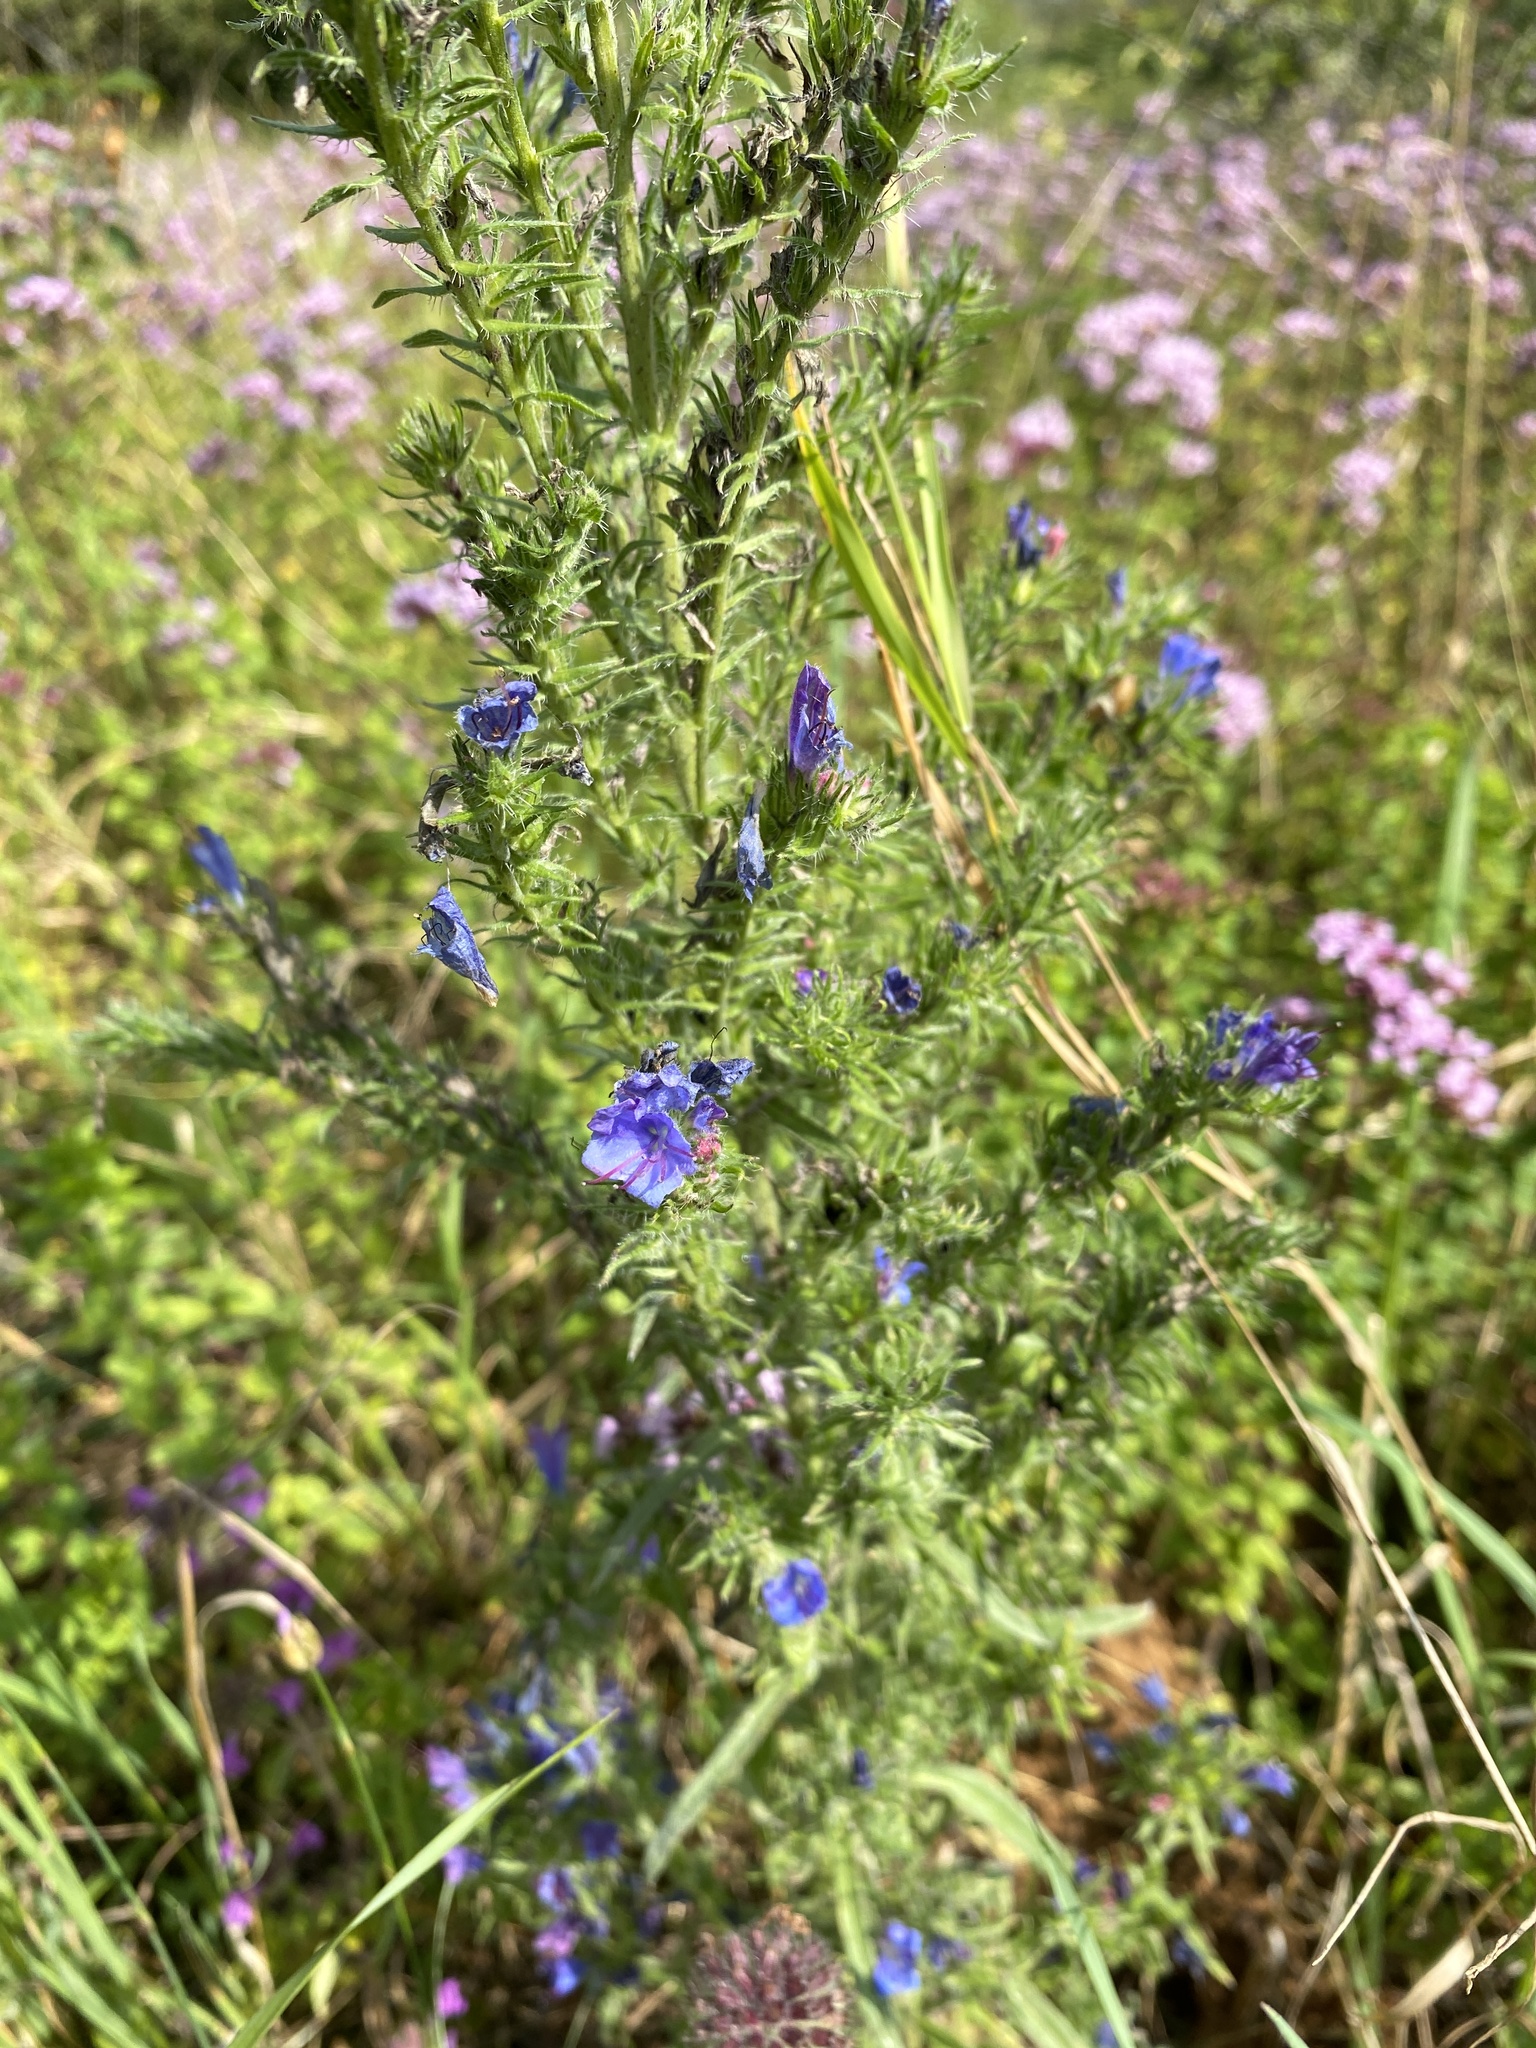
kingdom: Plantae
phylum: Tracheophyta
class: Magnoliopsida
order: Boraginales
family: Boraginaceae
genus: Echium
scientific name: Echium vulgare
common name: Common viper's bugloss
